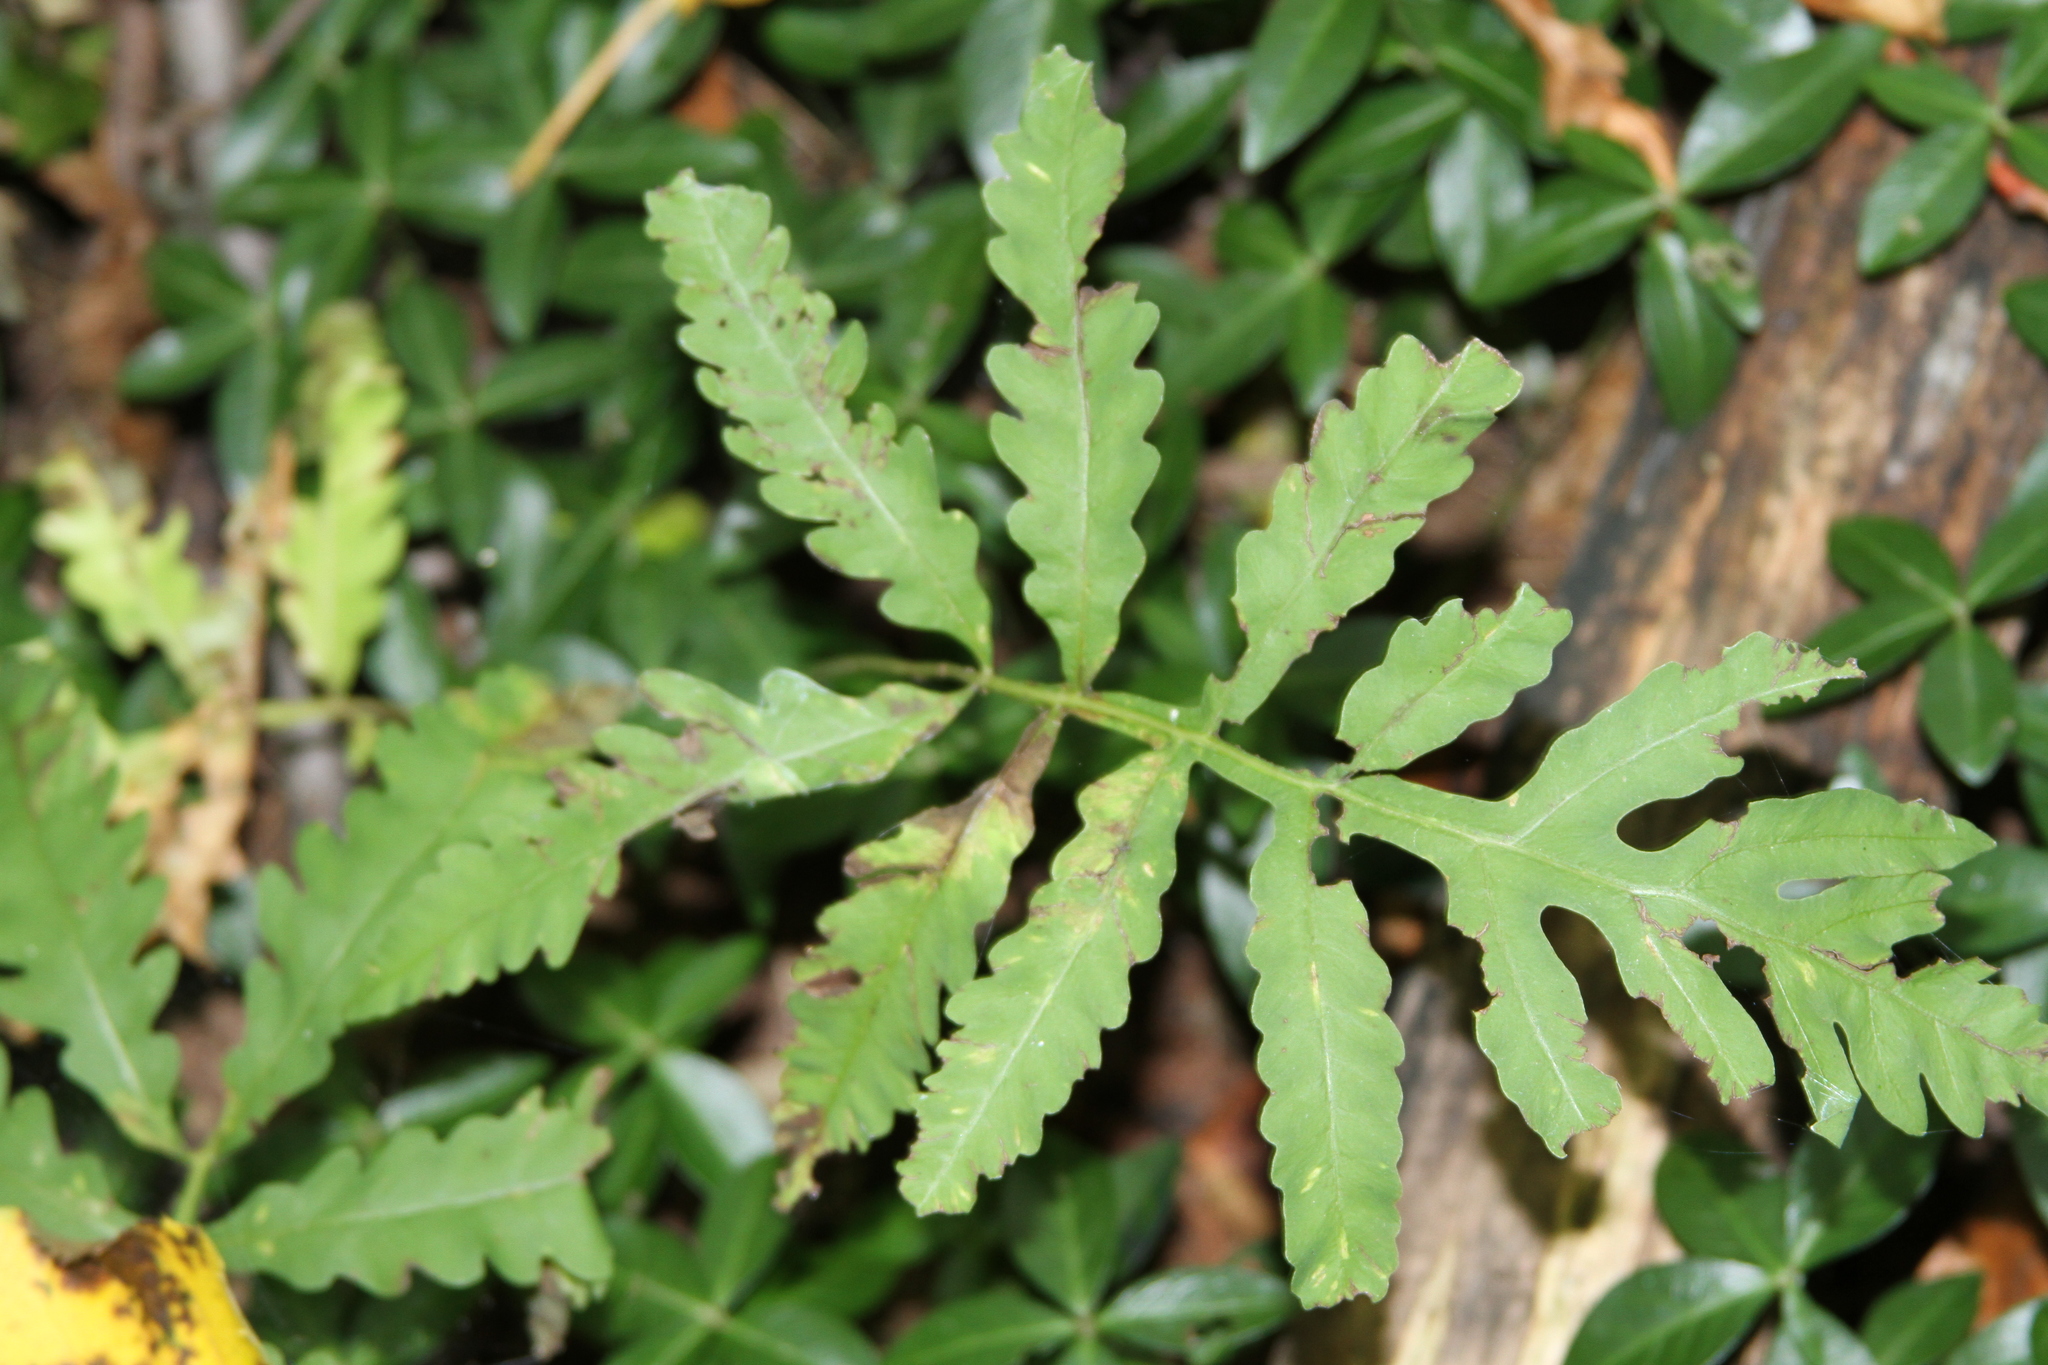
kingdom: Plantae
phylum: Tracheophyta
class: Polypodiopsida
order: Polypodiales
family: Onocleaceae
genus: Onoclea
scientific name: Onoclea sensibilis
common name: Sensitive fern
